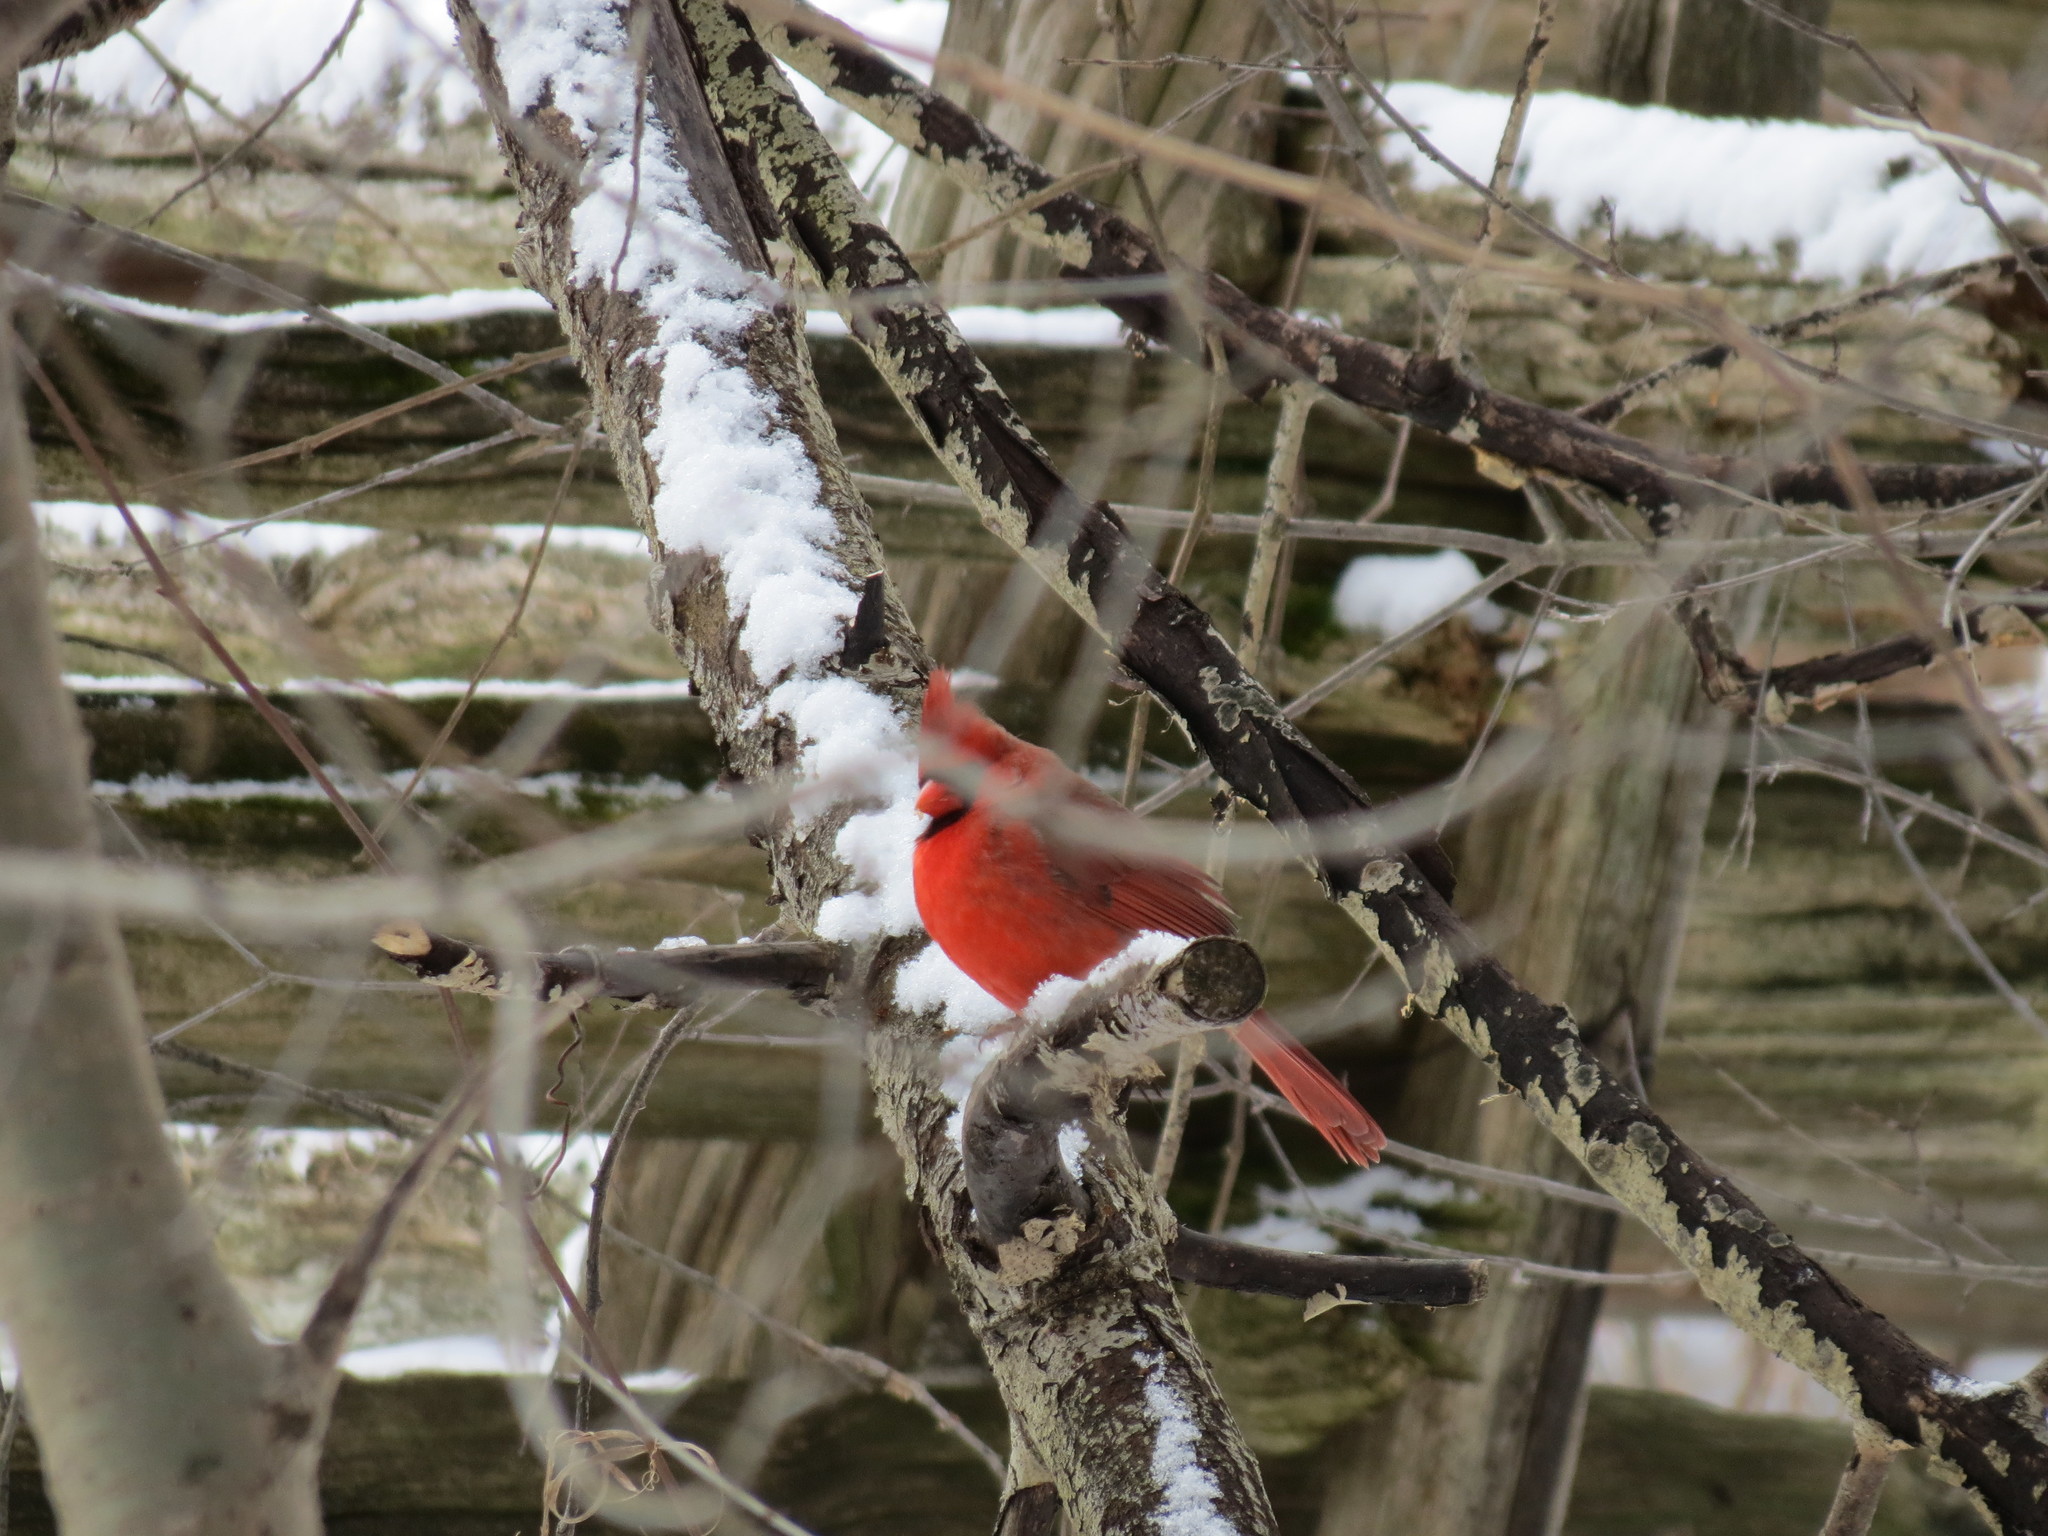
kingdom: Animalia
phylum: Chordata
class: Aves
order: Passeriformes
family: Cardinalidae
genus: Cardinalis
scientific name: Cardinalis cardinalis
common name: Northern cardinal
